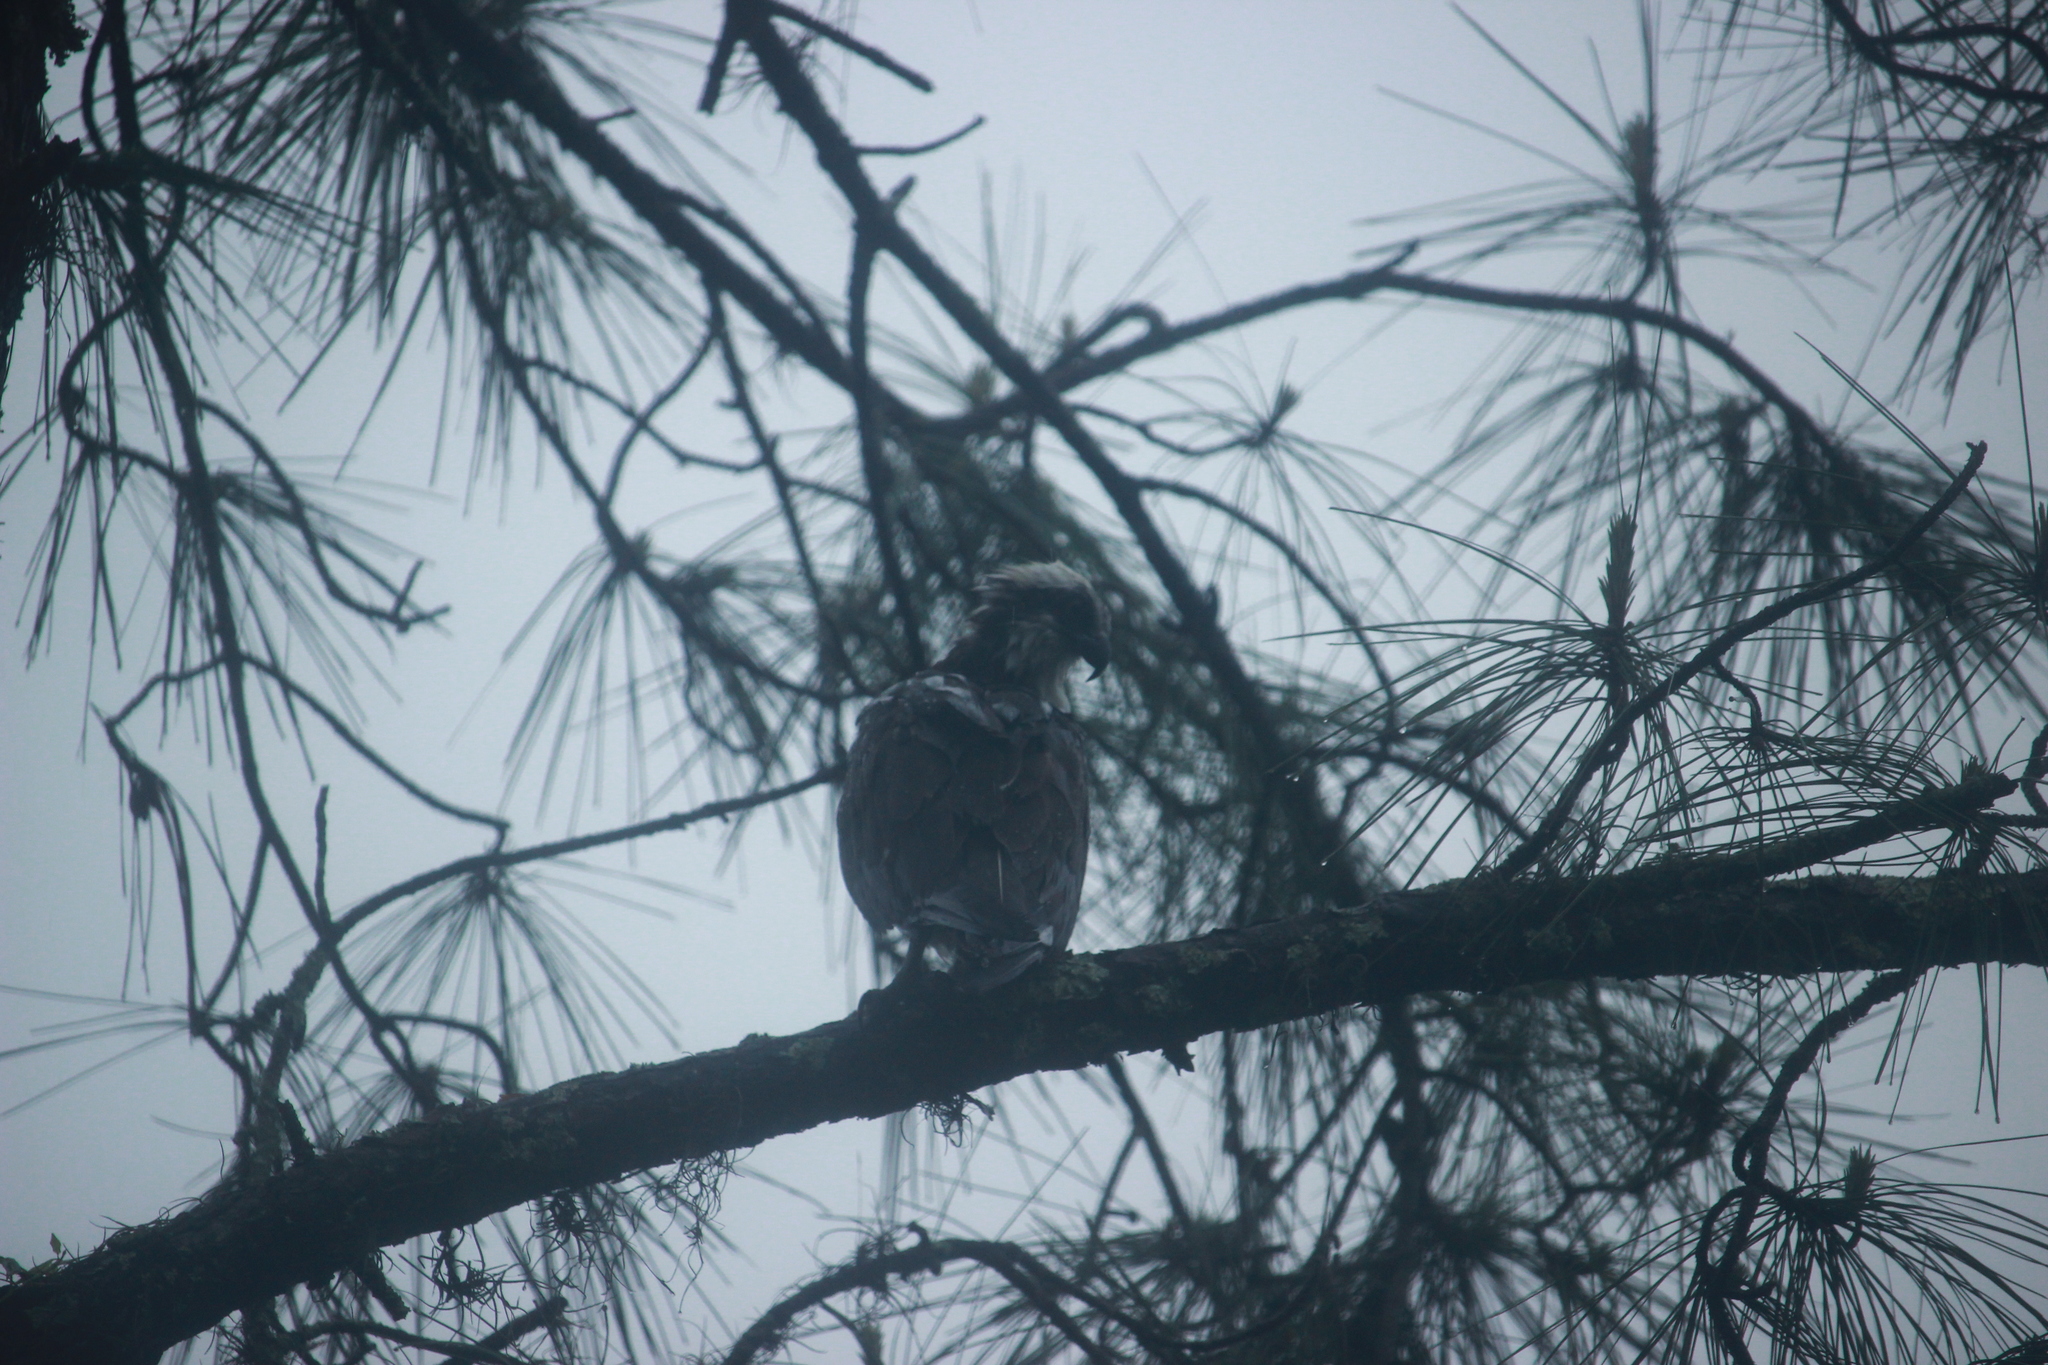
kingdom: Animalia
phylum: Chordata
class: Aves
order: Accipitriformes
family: Pandionidae
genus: Pandion
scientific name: Pandion haliaetus
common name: Osprey
